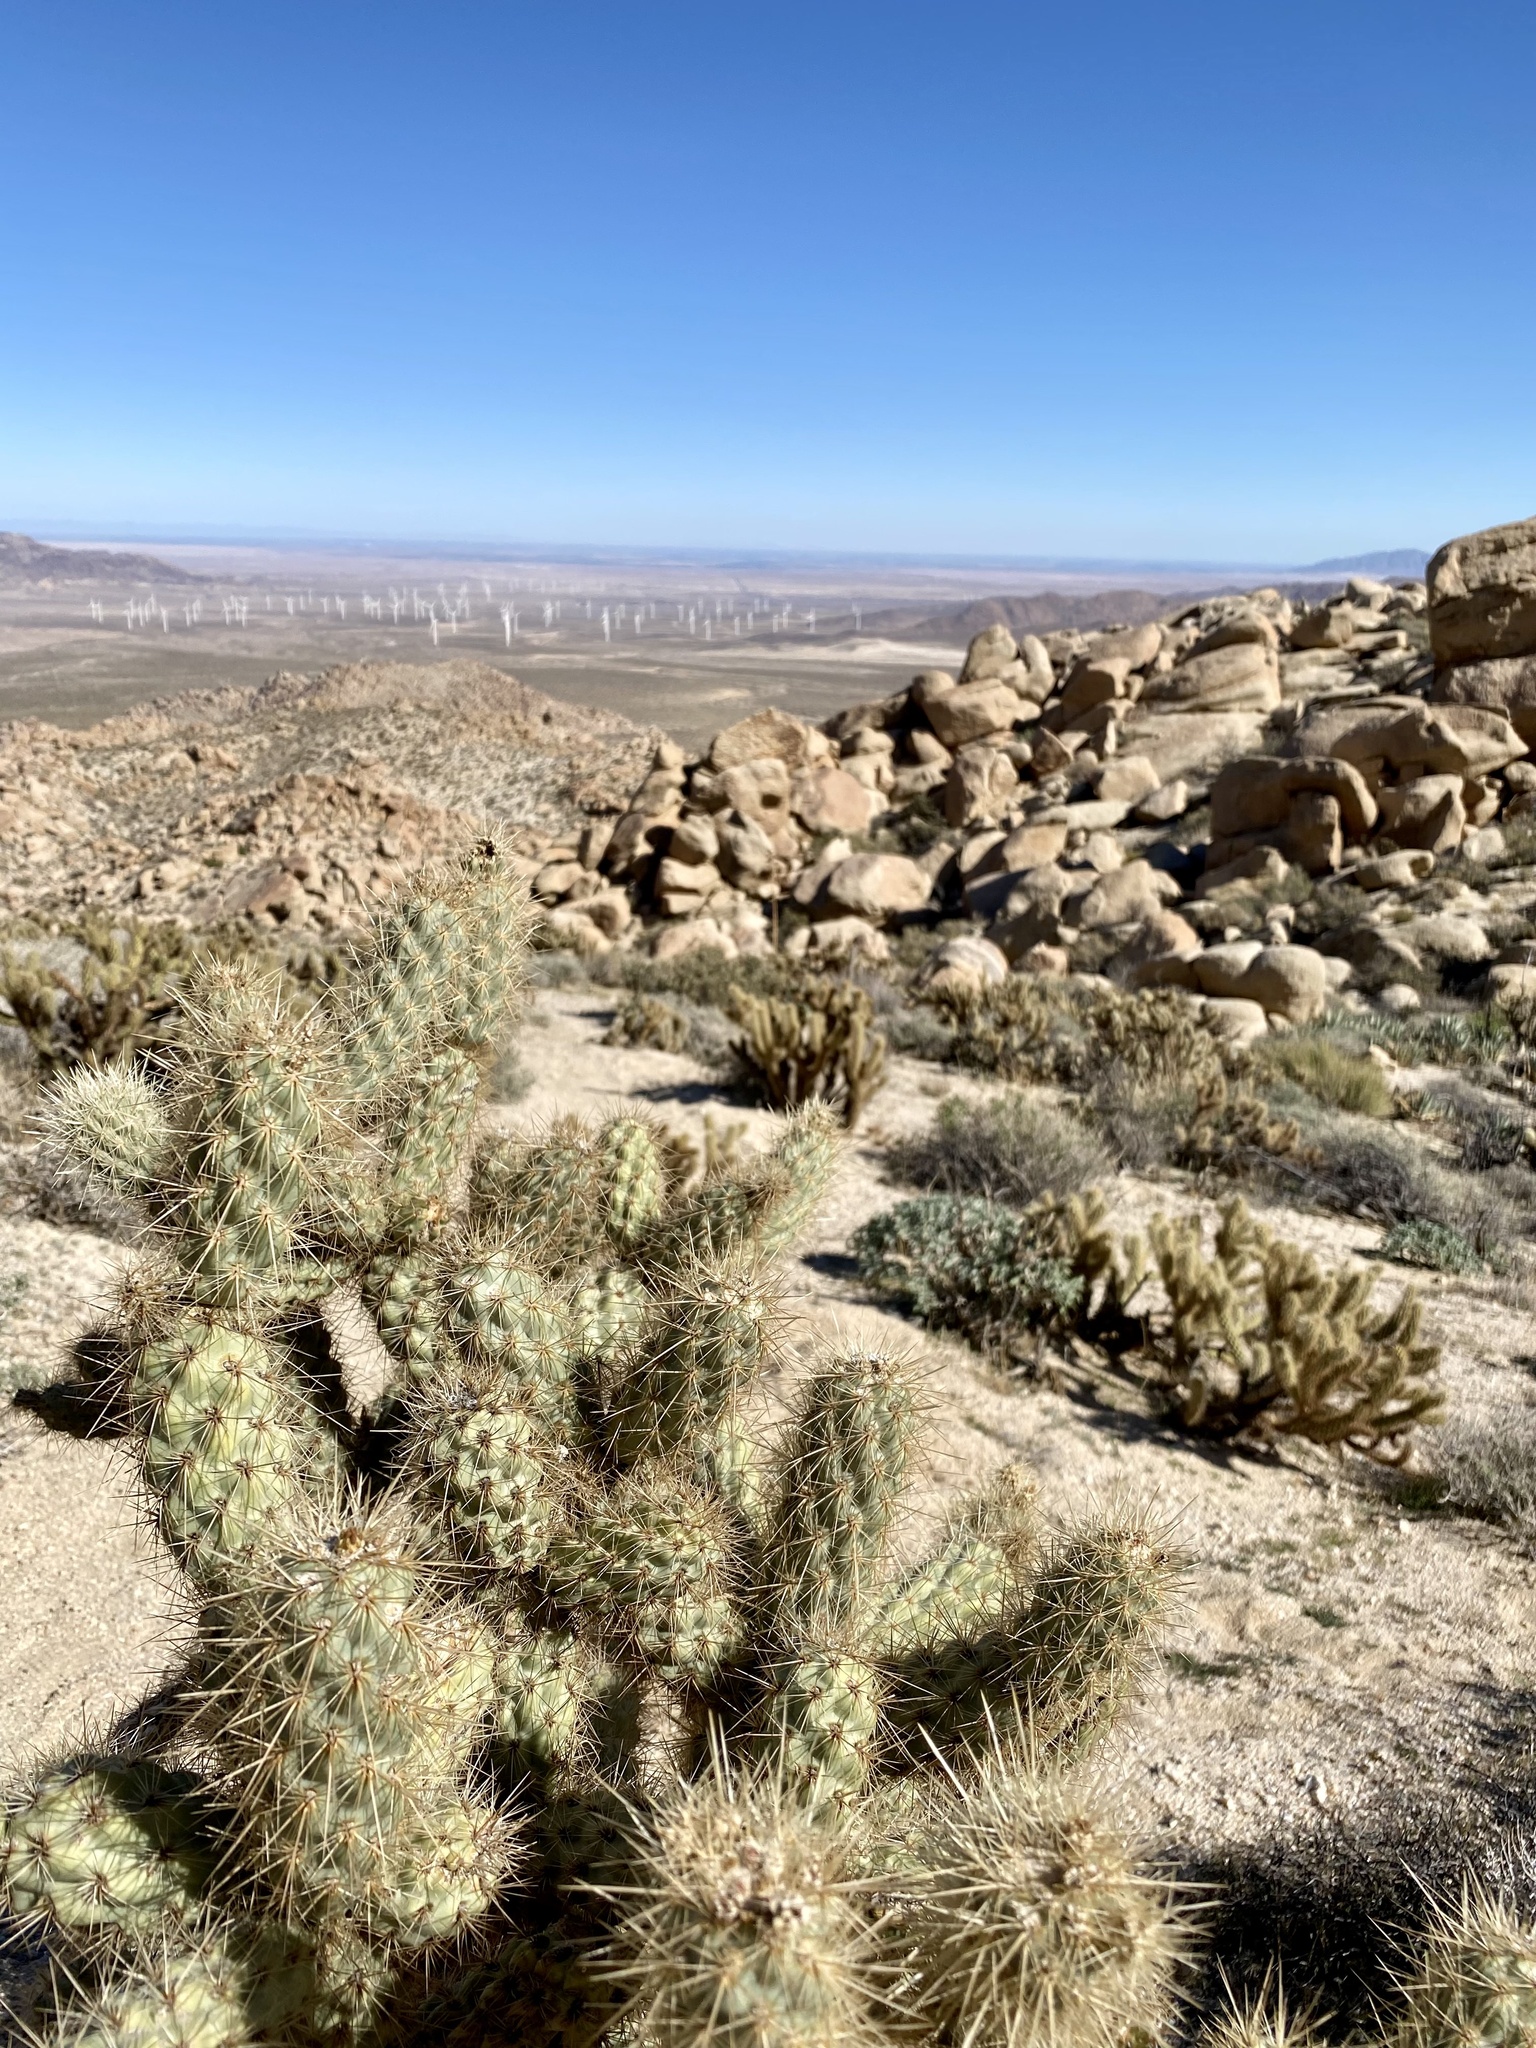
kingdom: Plantae
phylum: Tracheophyta
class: Magnoliopsida
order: Caryophyllales
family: Cactaceae
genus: Cylindropuntia
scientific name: Cylindropuntia wolfii
